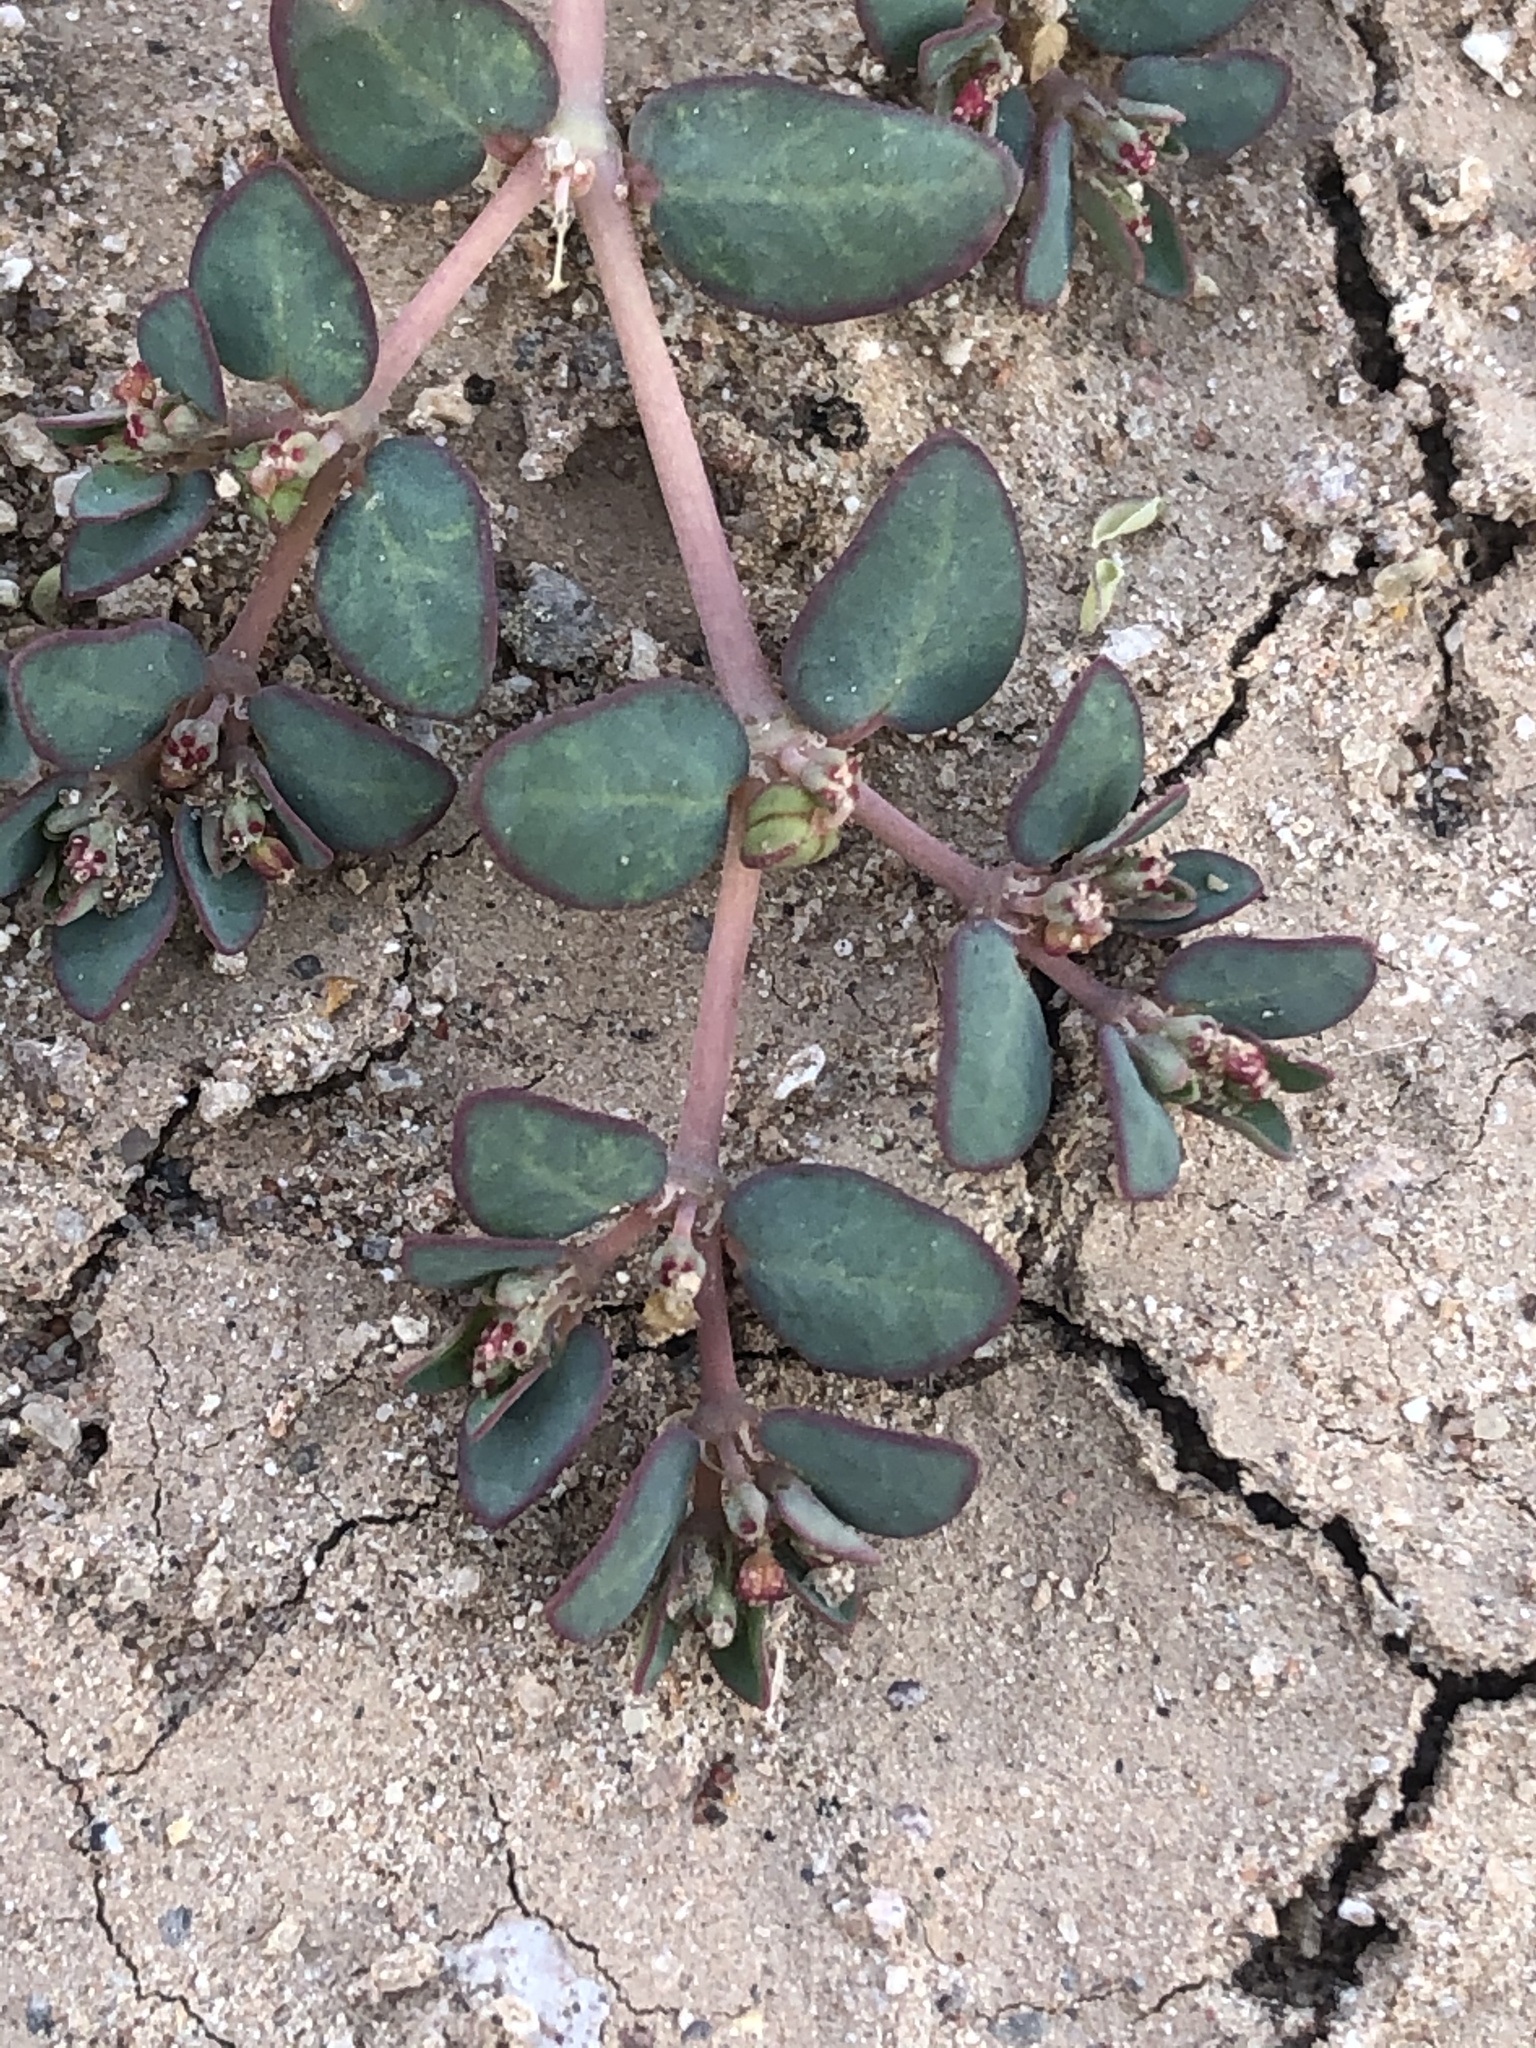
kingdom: Plantae
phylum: Tracheophyta
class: Magnoliopsida
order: Malpighiales
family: Euphorbiaceae
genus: Euphorbia
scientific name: Euphorbia micromera
